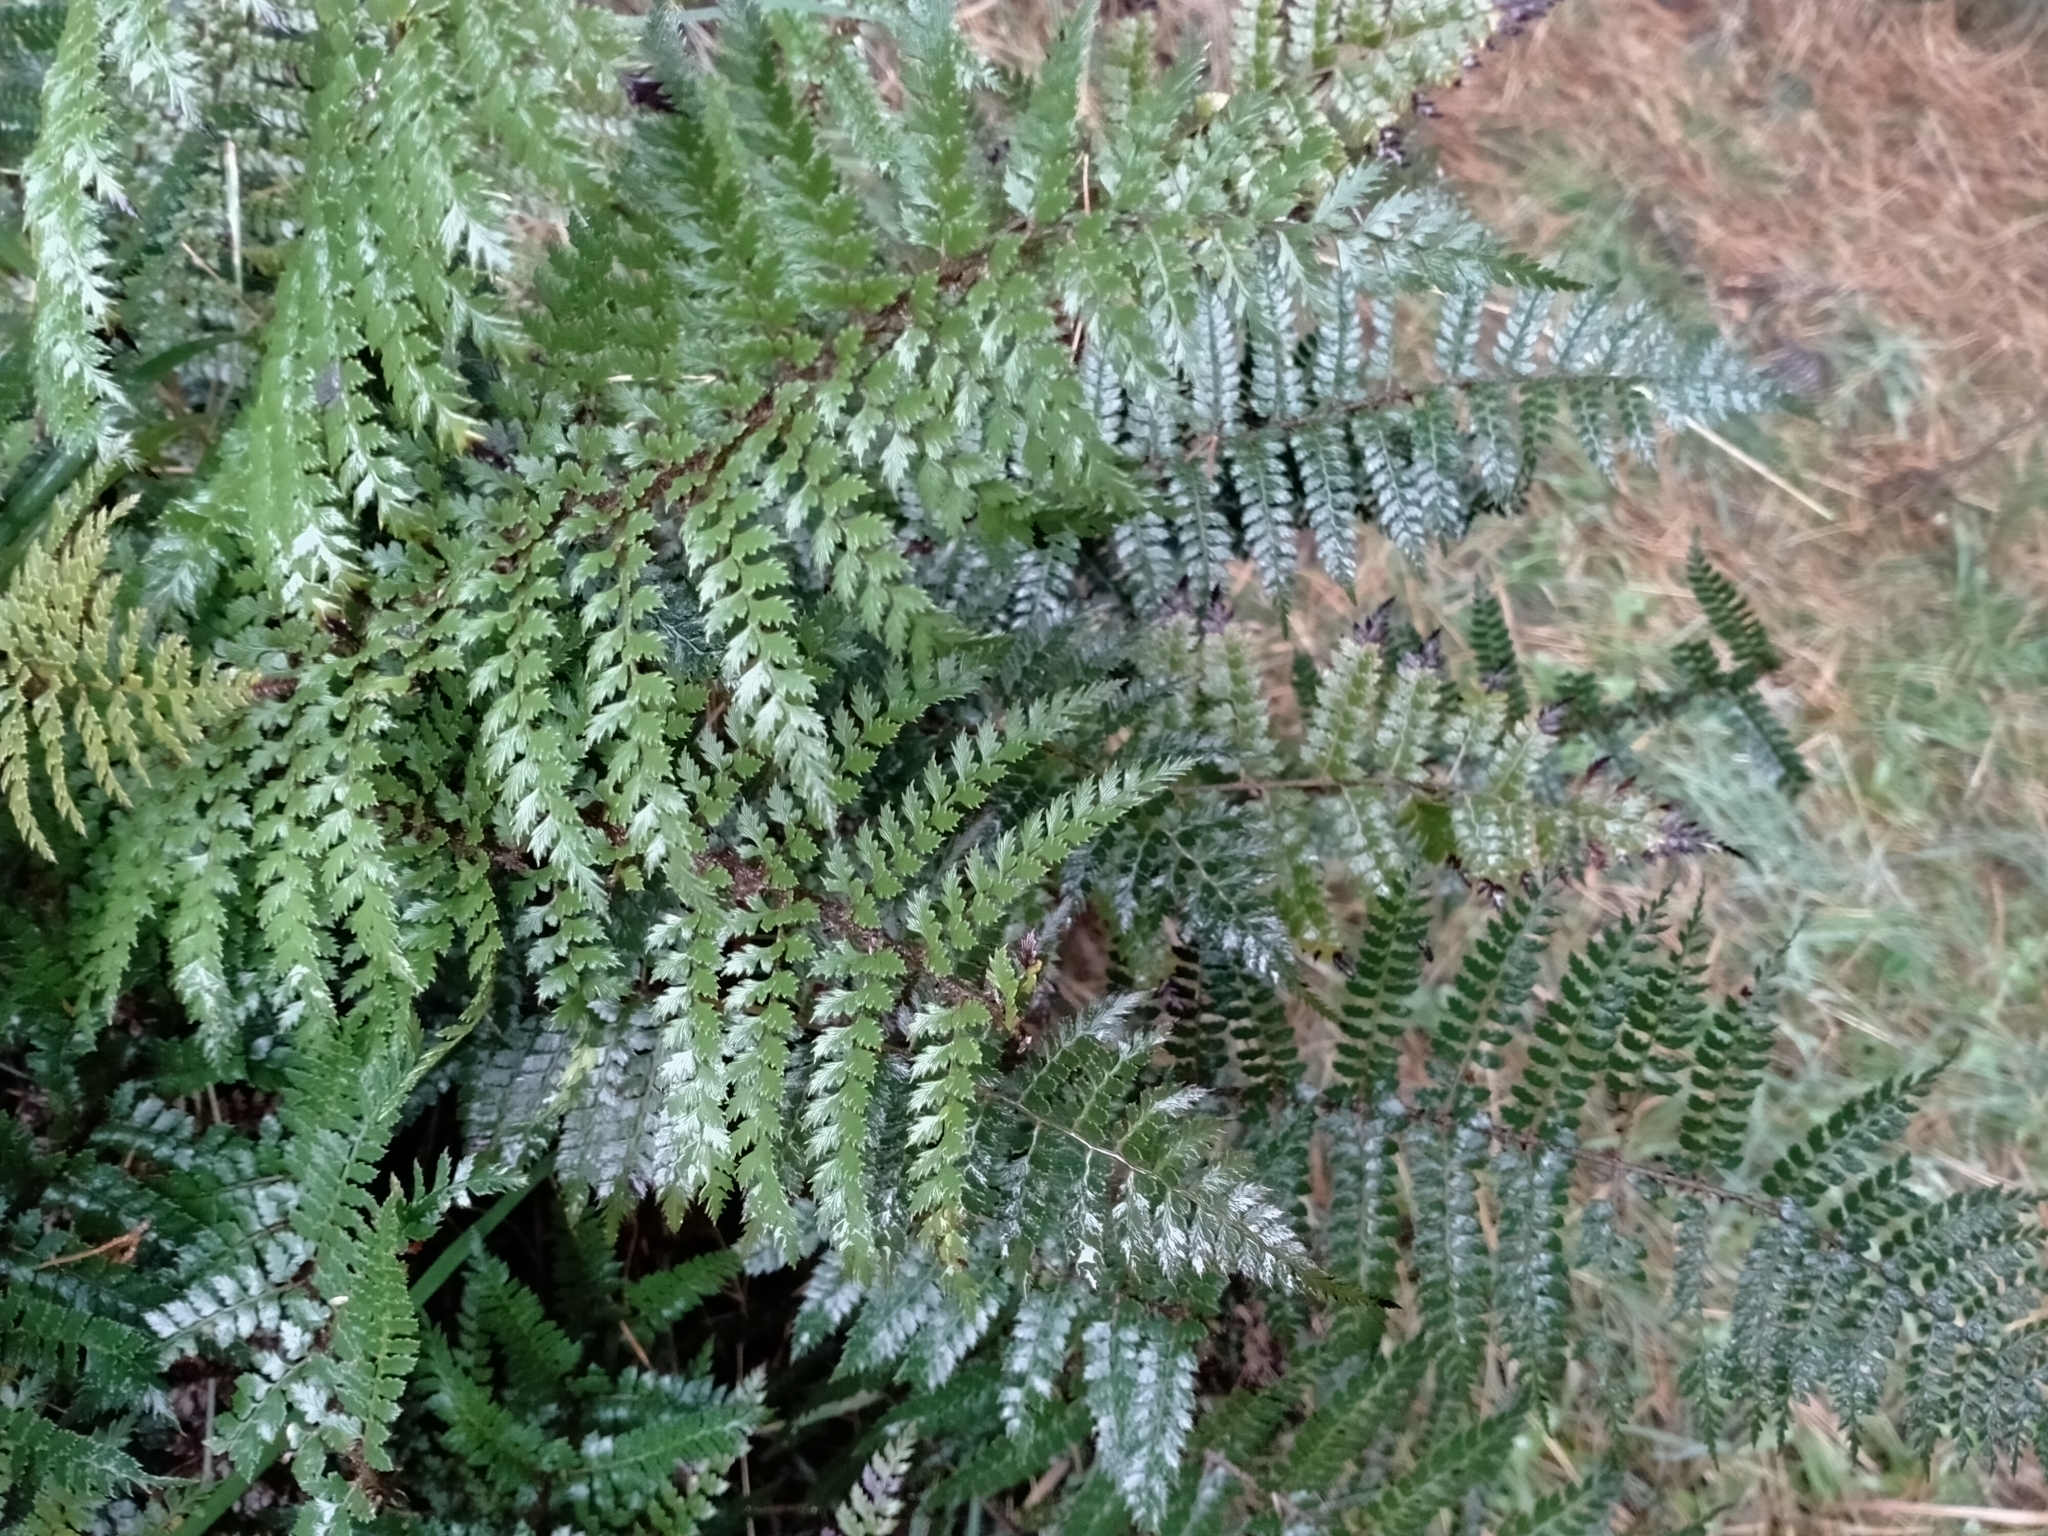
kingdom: Plantae
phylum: Tracheophyta
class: Polypodiopsida
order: Polypodiales
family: Dryopteridaceae
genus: Polystichum
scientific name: Polystichum vestitum
